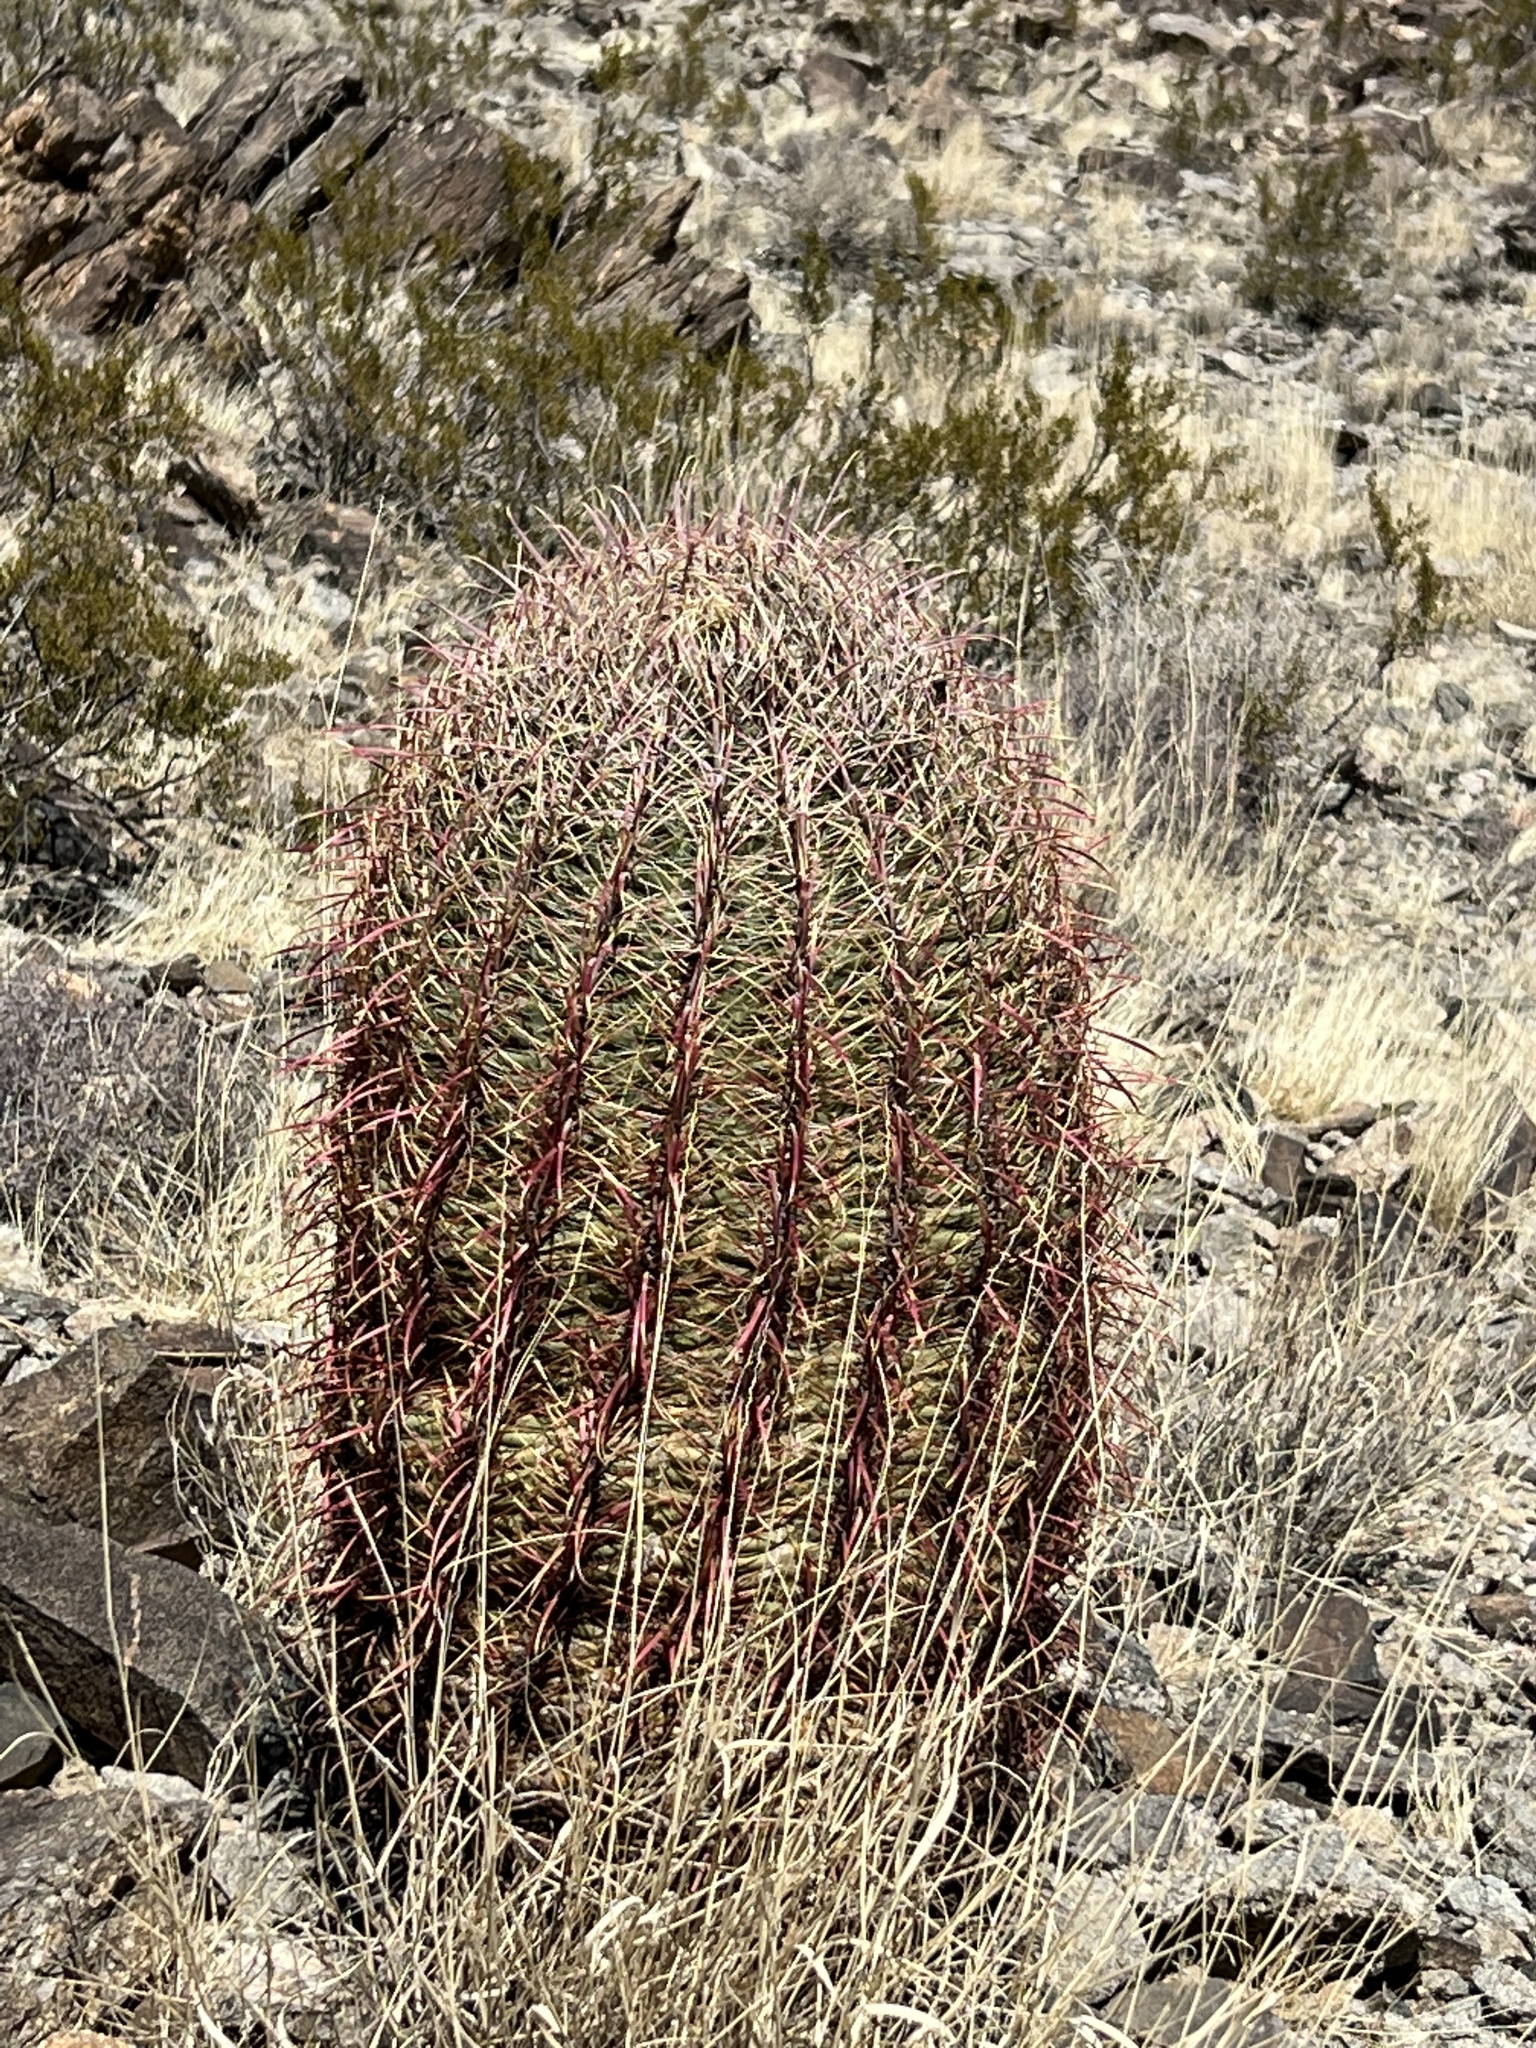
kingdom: Plantae
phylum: Tracheophyta
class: Magnoliopsida
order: Caryophyllales
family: Cactaceae
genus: Ferocactus
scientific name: Ferocactus cylindraceus
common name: California barrel cactus
